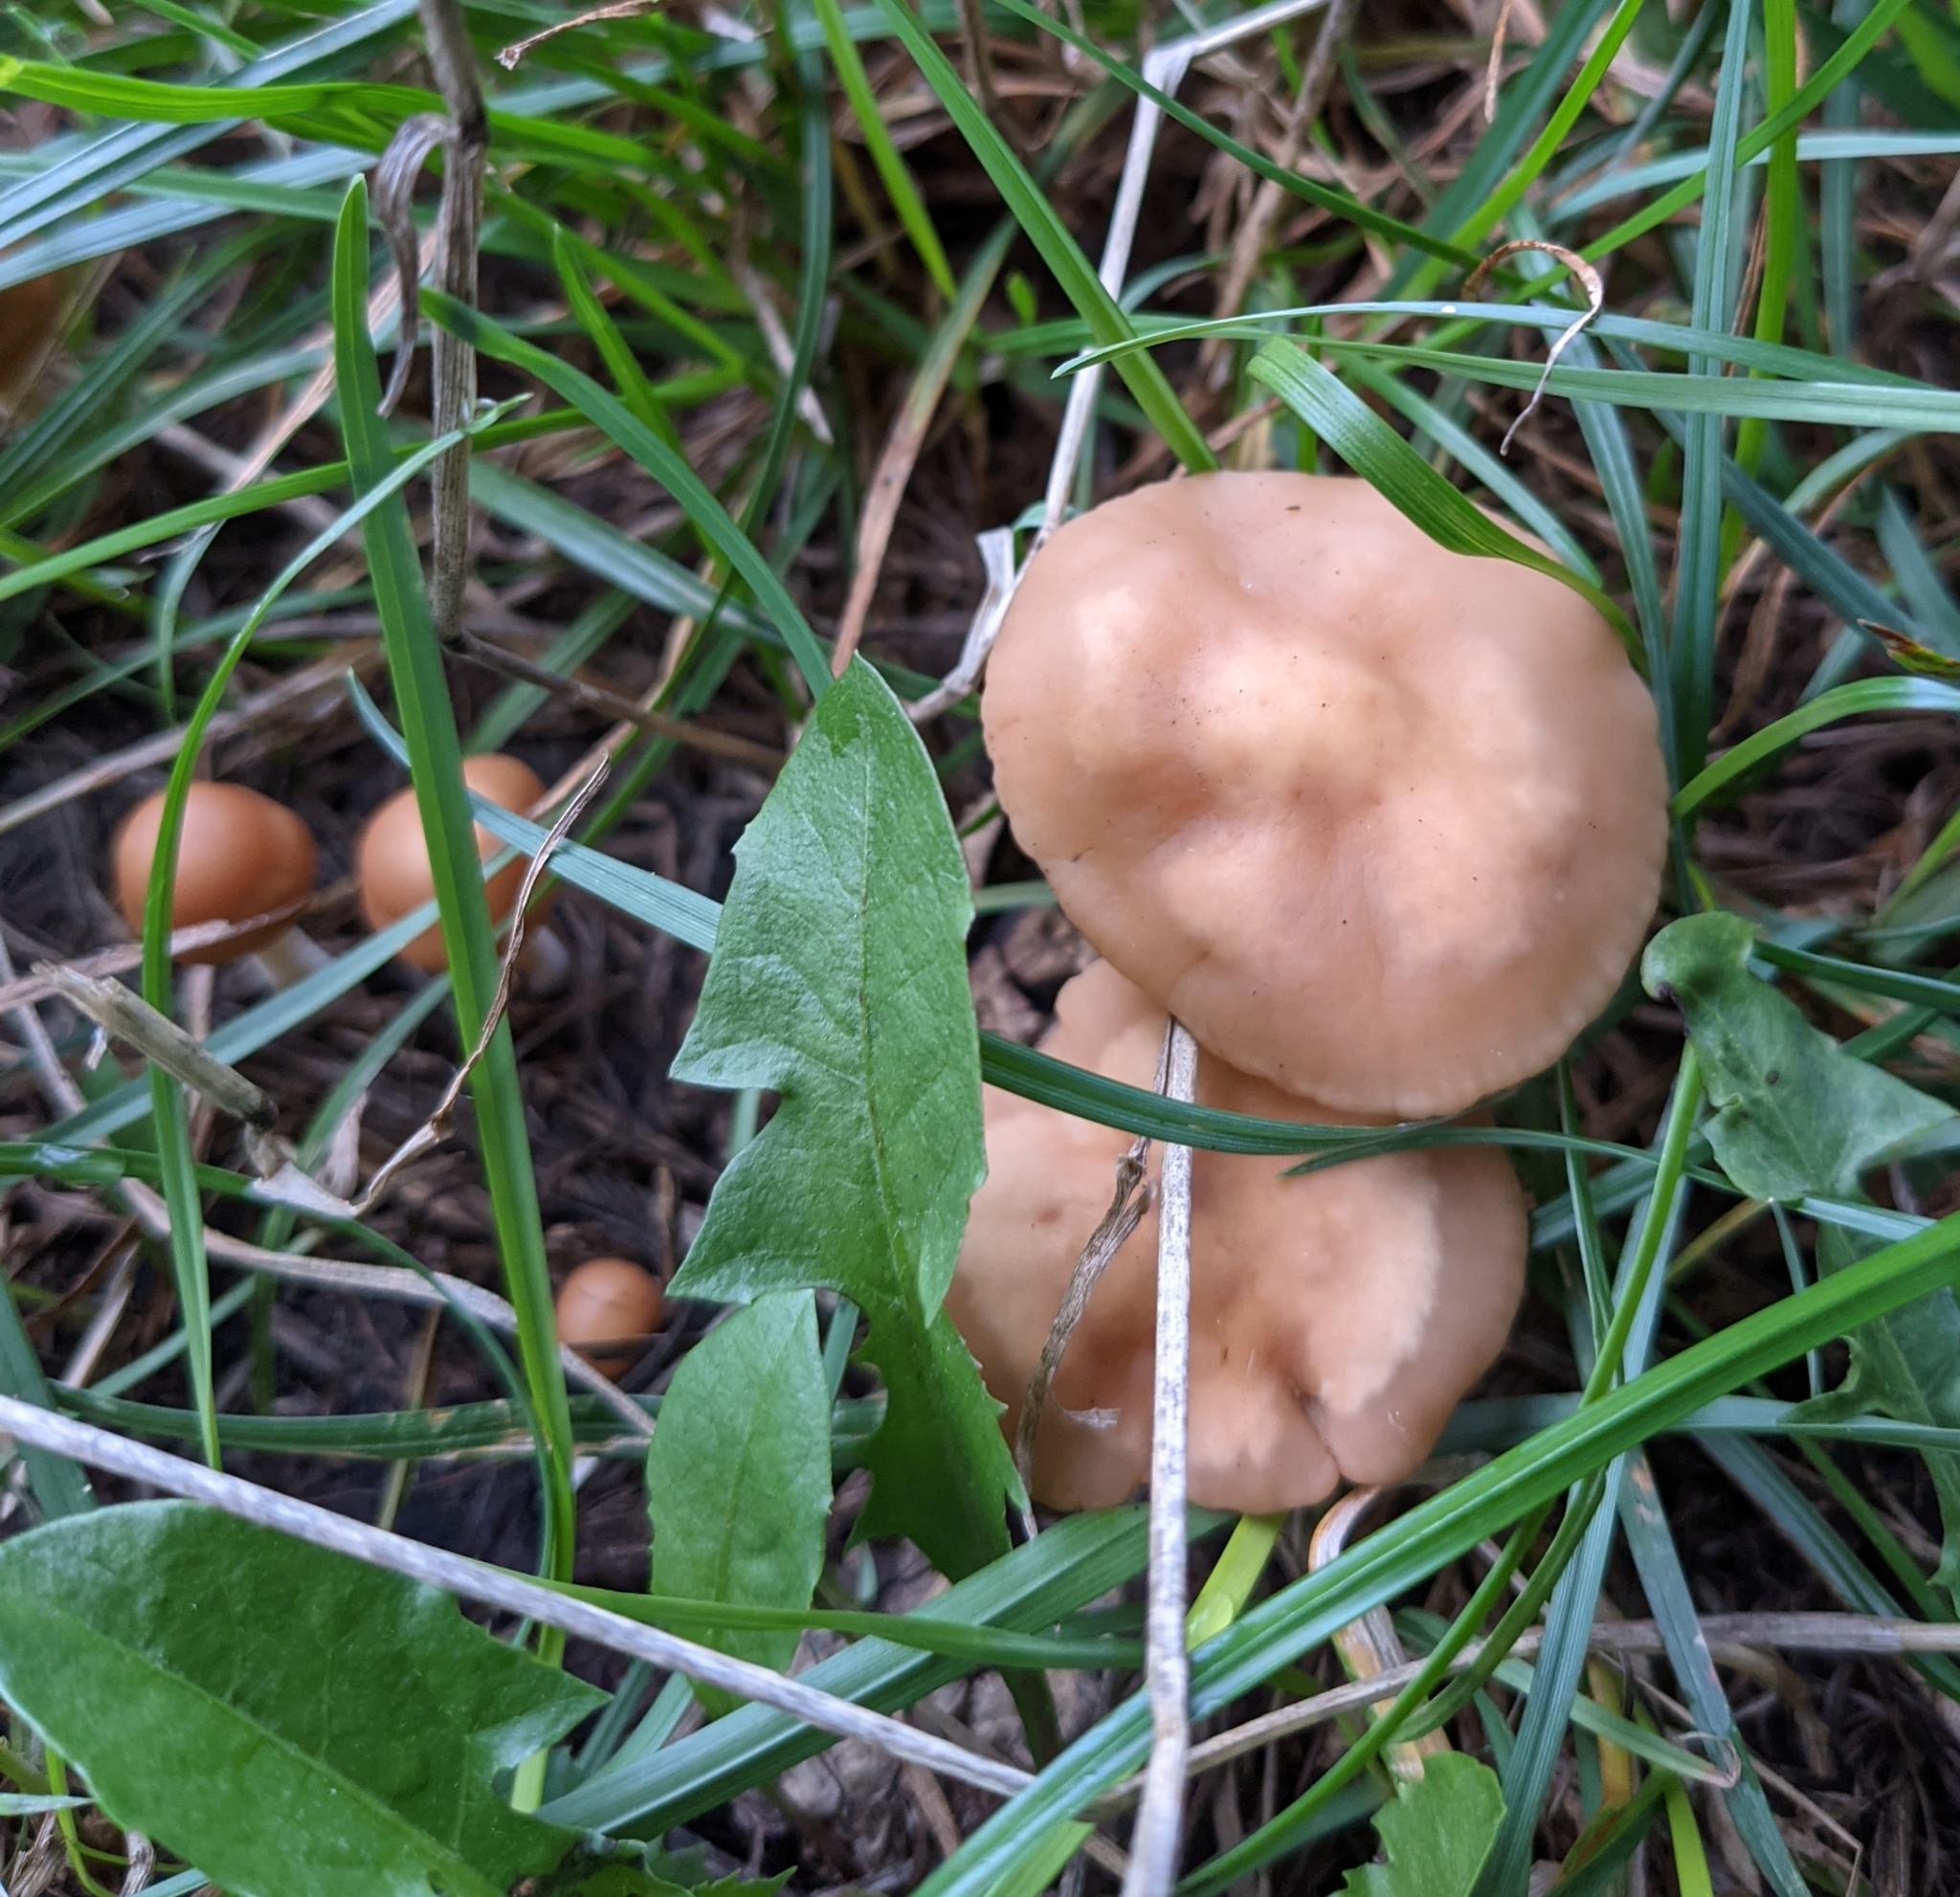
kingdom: Fungi
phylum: Basidiomycota
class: Agaricomycetes
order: Agaricales
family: Marasmiaceae
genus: Marasmius
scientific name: Marasmius oreades
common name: Fairy ring champignon
